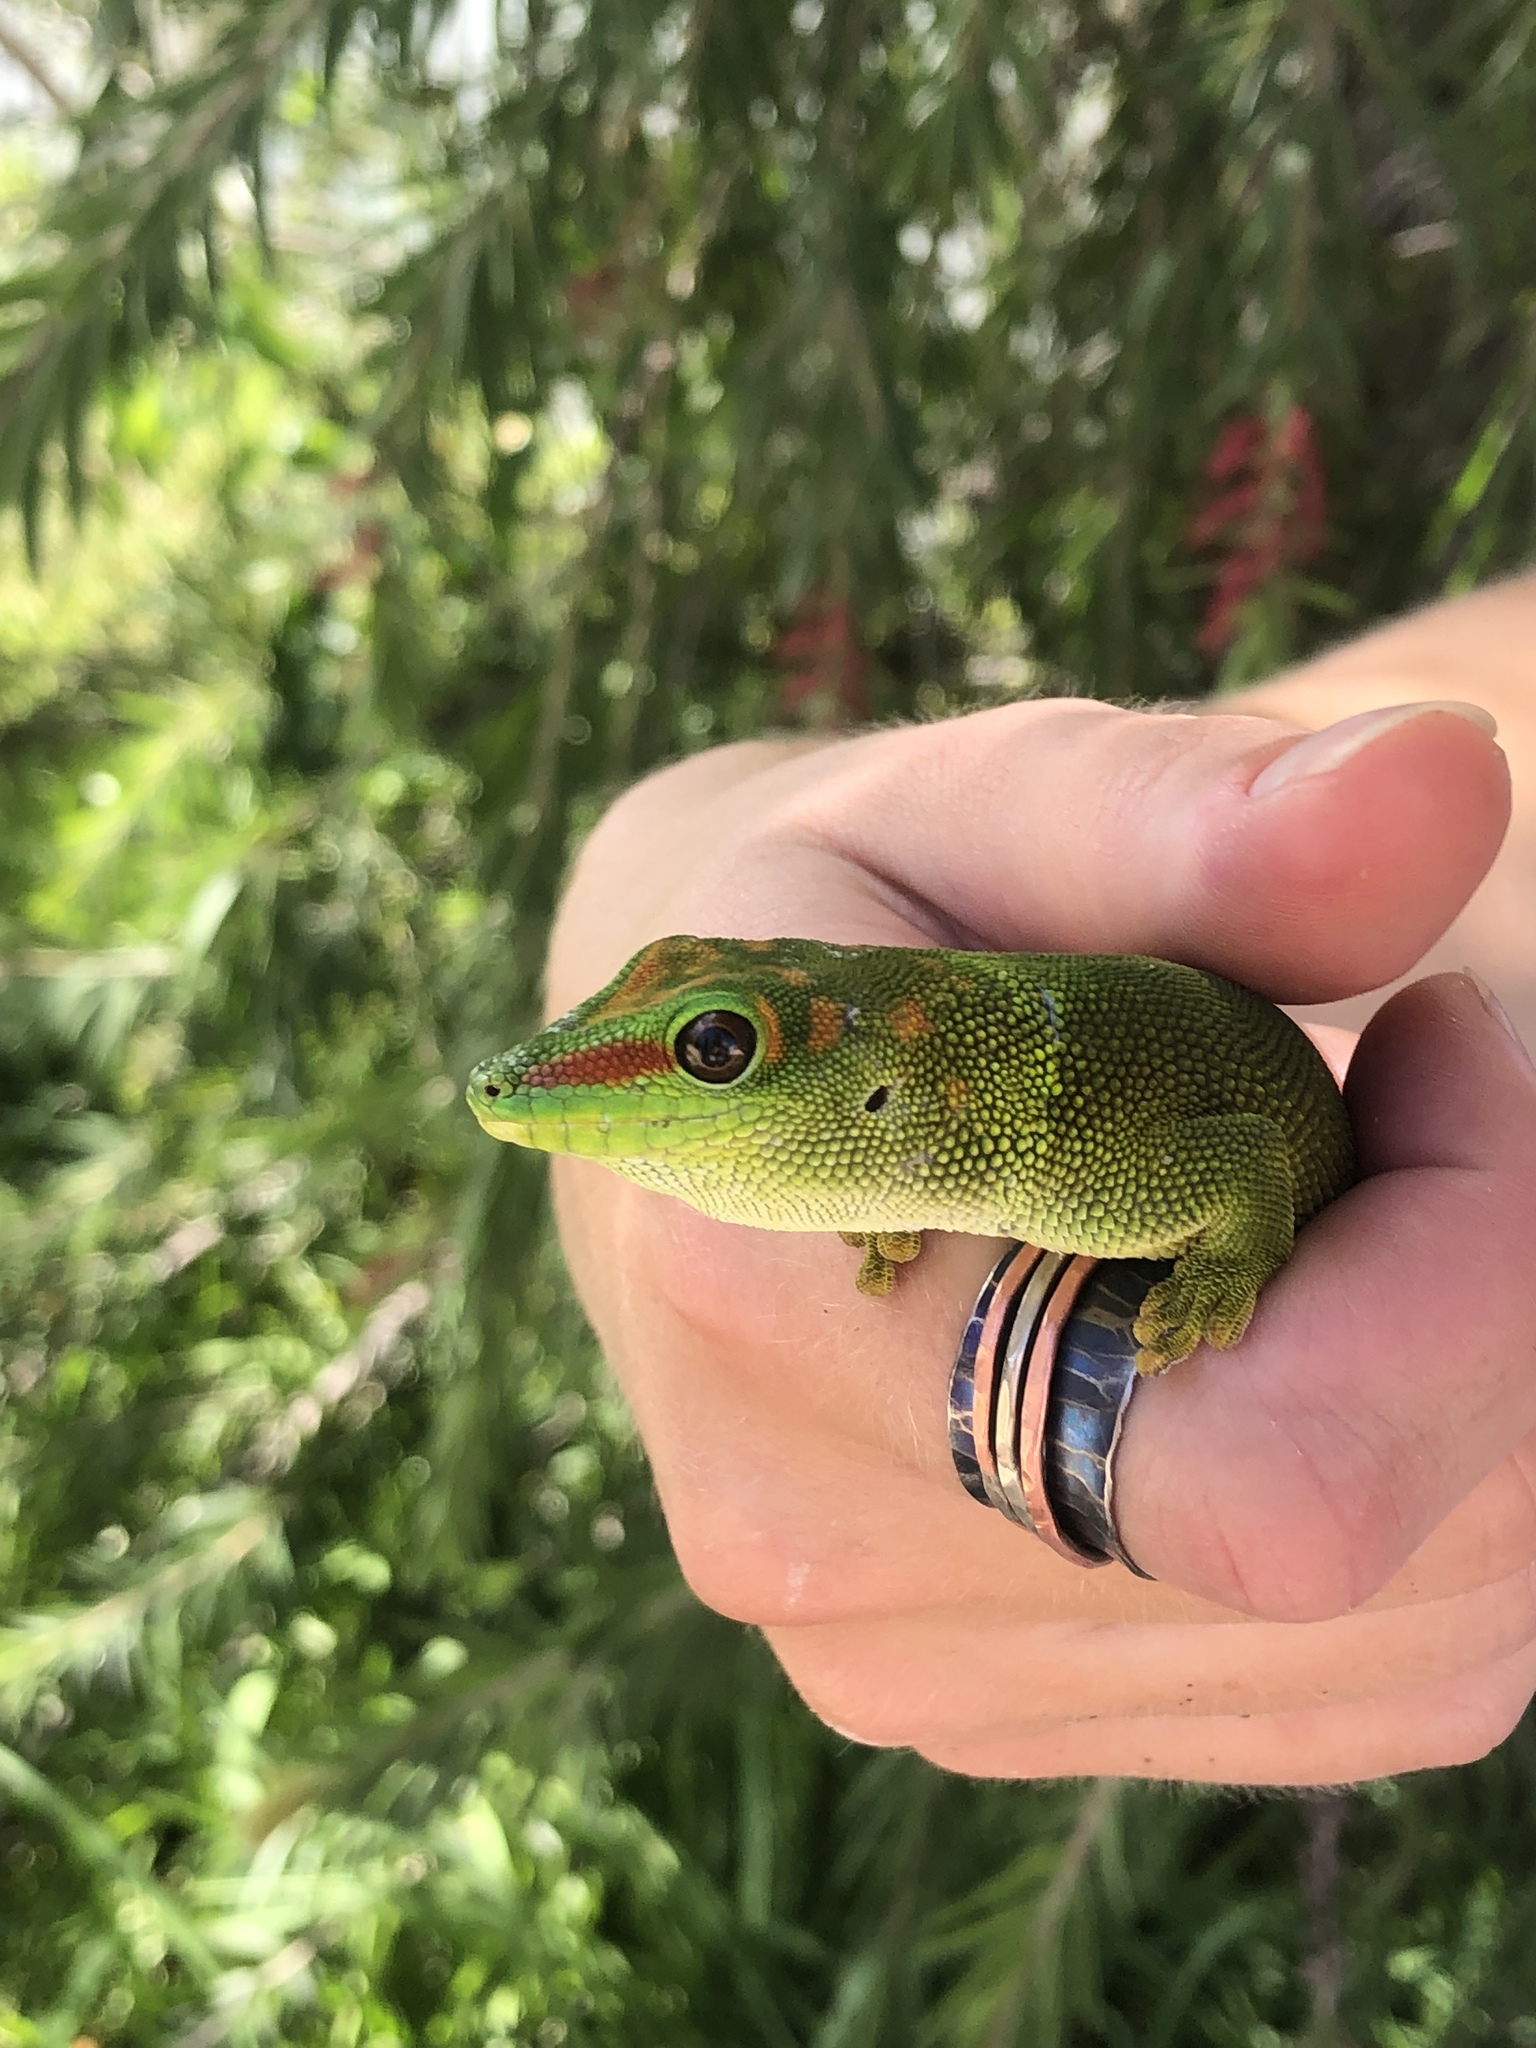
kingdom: Animalia
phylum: Chordata
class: Squamata
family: Gekkonidae
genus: Phelsuma
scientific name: Phelsuma grandis
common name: Madagascar giant day gecko
